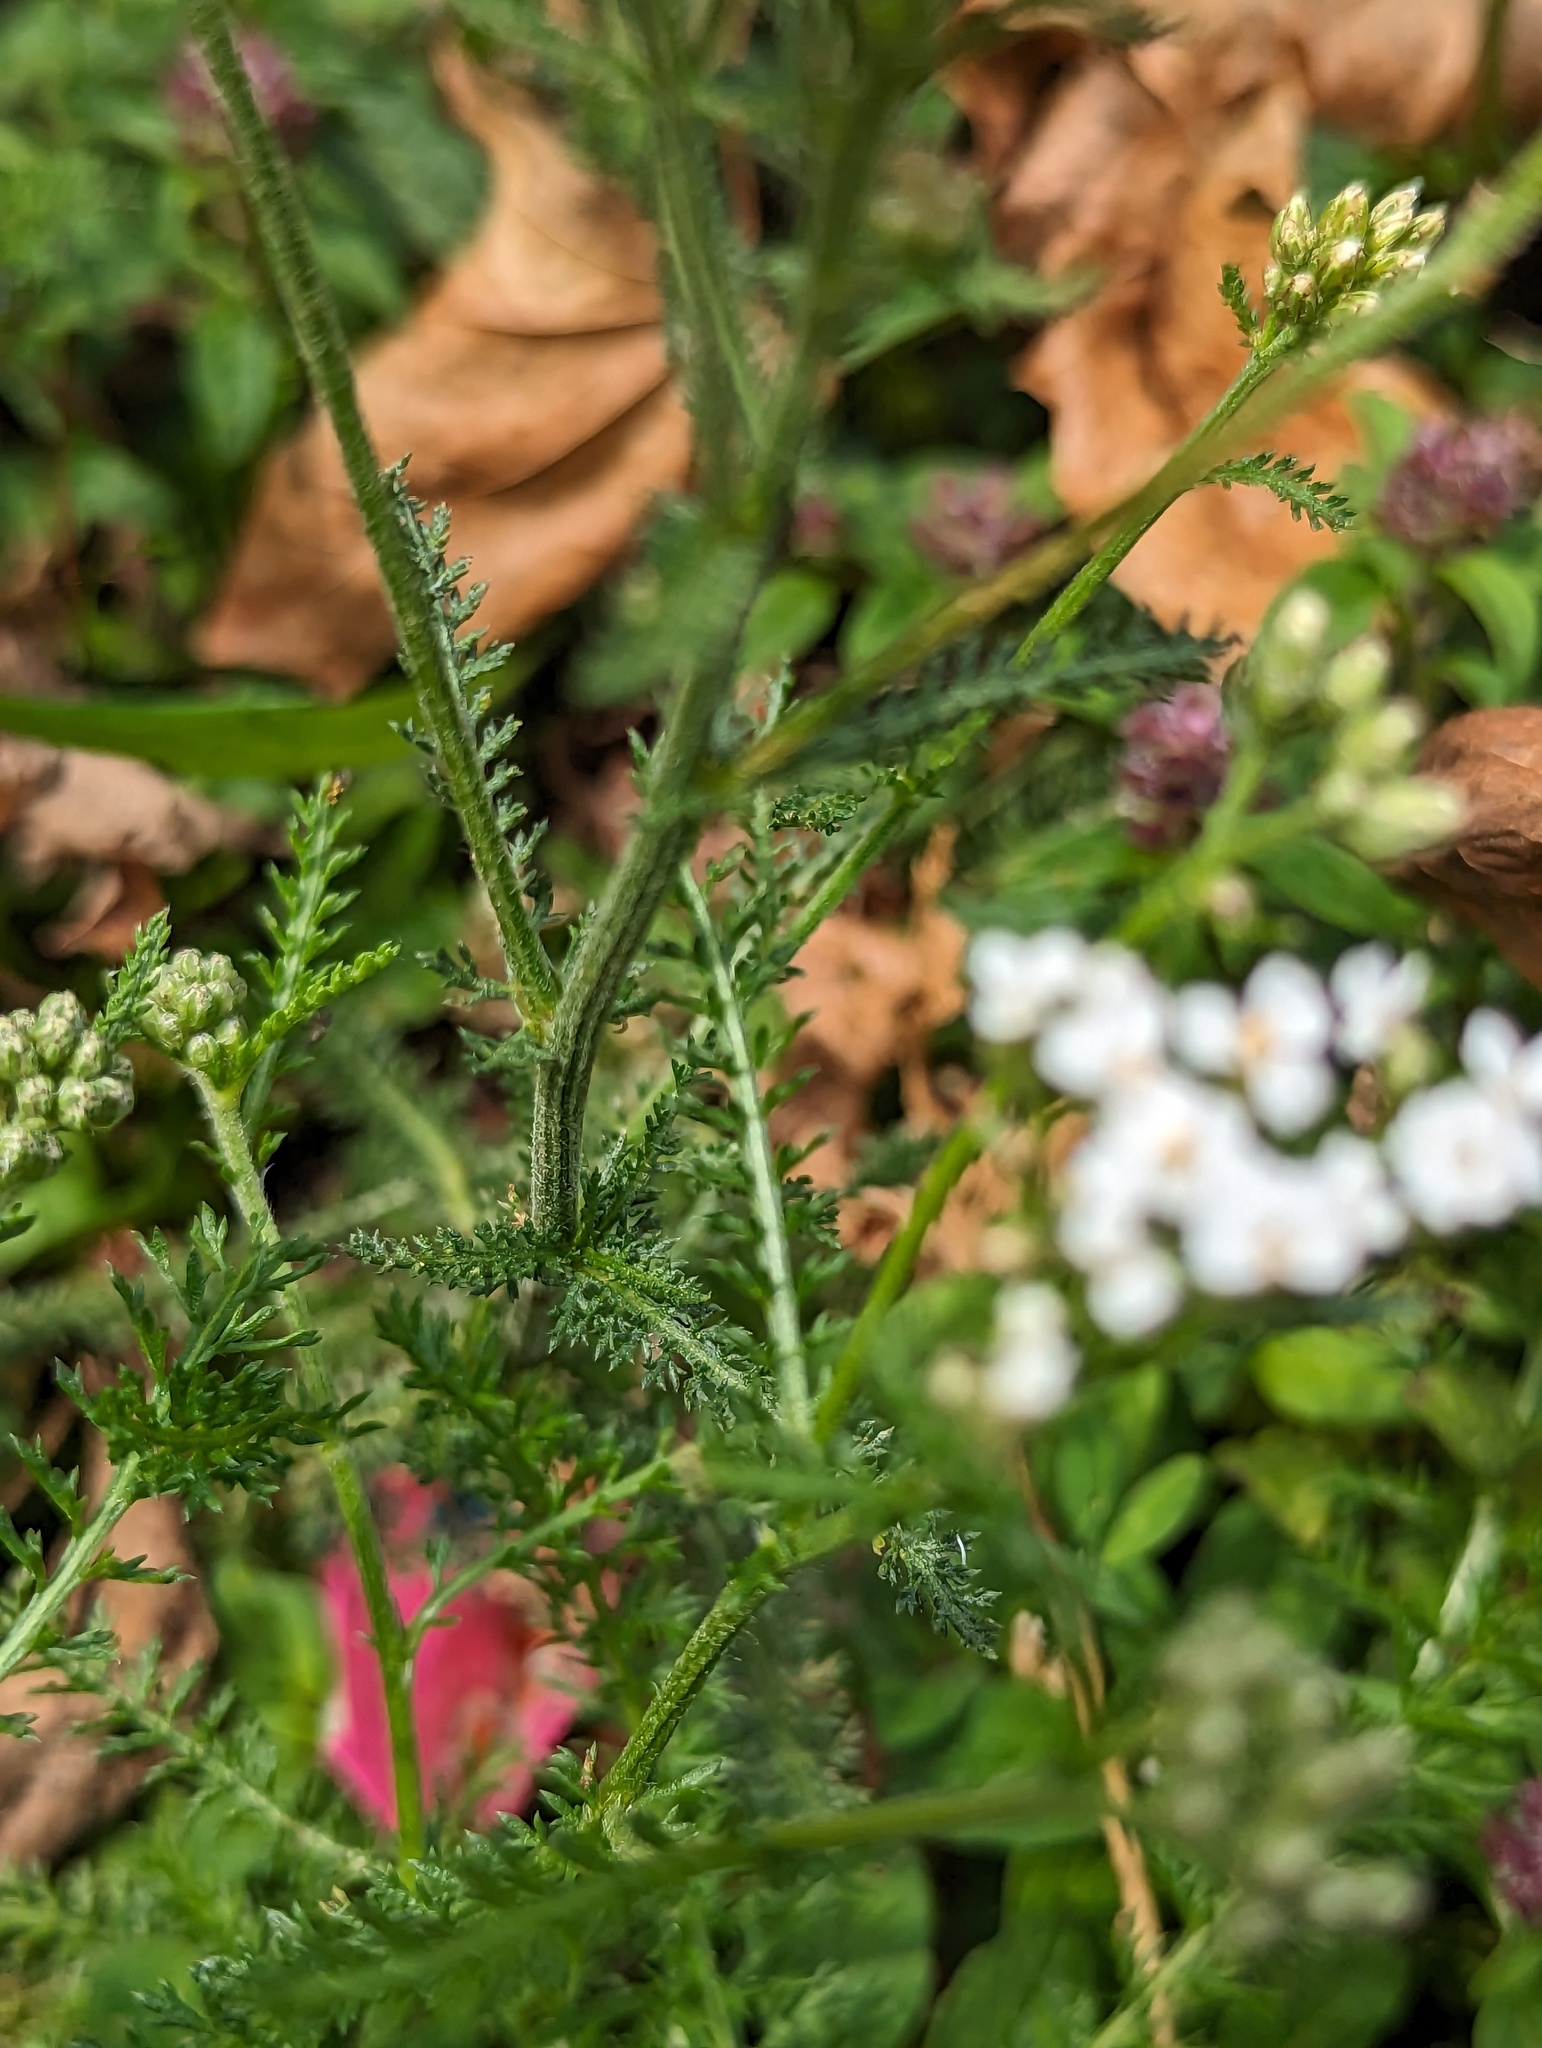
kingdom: Plantae
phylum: Tracheophyta
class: Magnoliopsida
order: Asterales
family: Asteraceae
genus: Achillea
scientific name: Achillea millefolium
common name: Yarrow
